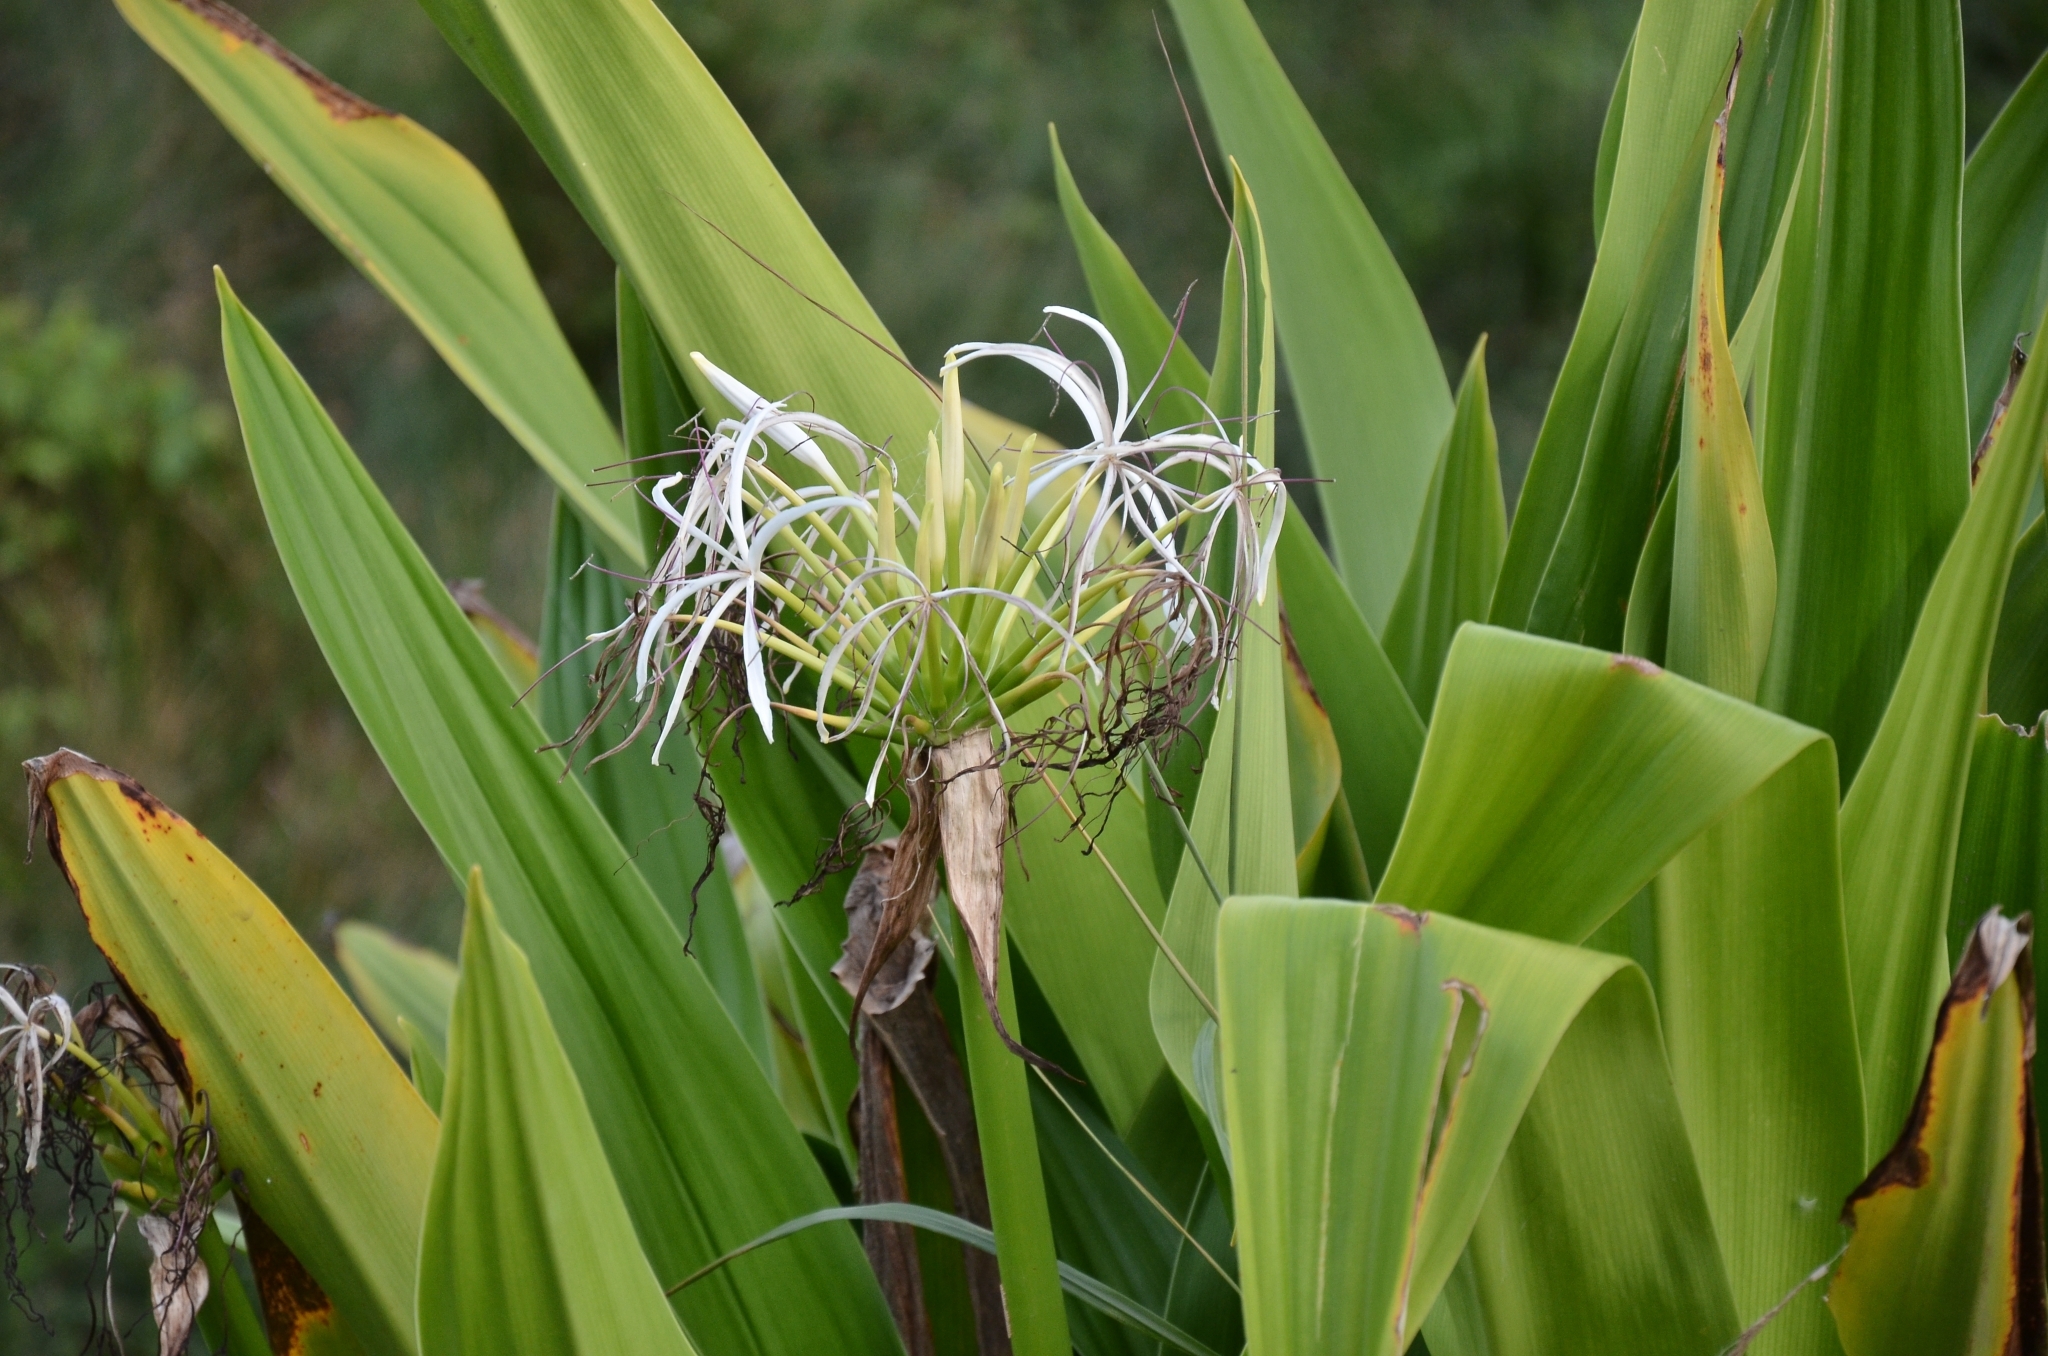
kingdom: Plantae
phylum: Tracheophyta
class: Liliopsida
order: Asparagales
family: Amaryllidaceae
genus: Crinum
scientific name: Crinum asiaticum
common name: Poisonbulb
